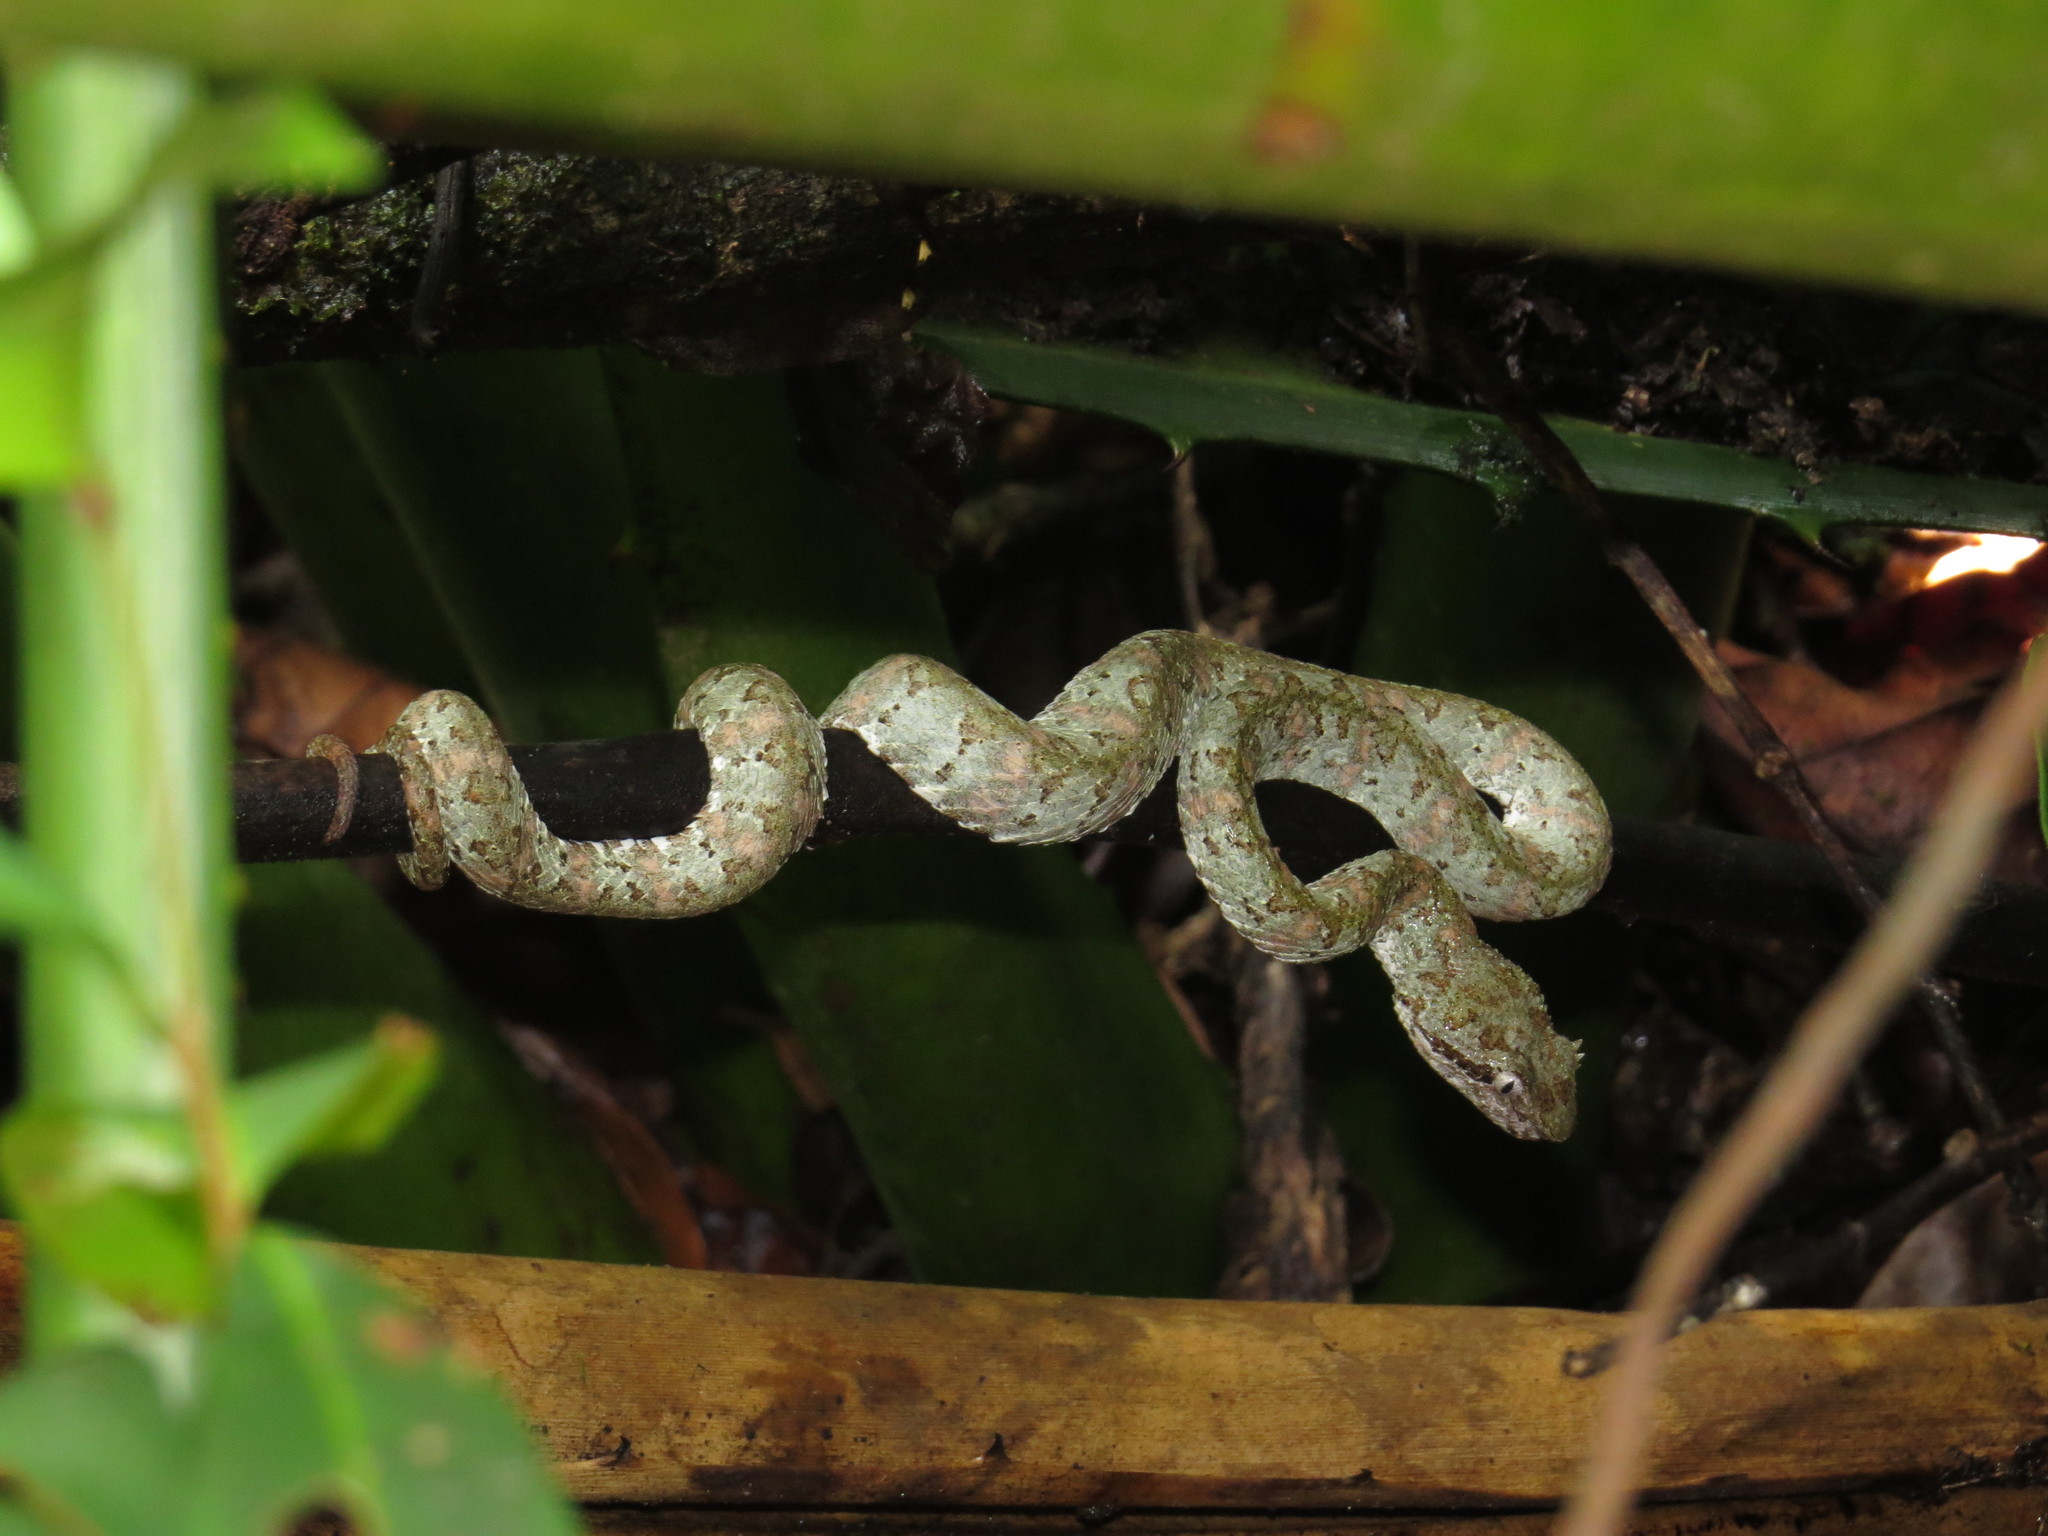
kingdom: Animalia
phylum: Chordata
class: Squamata
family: Viperidae
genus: Bothriechis
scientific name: Bothriechis schlegelii
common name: Eyelash viper
